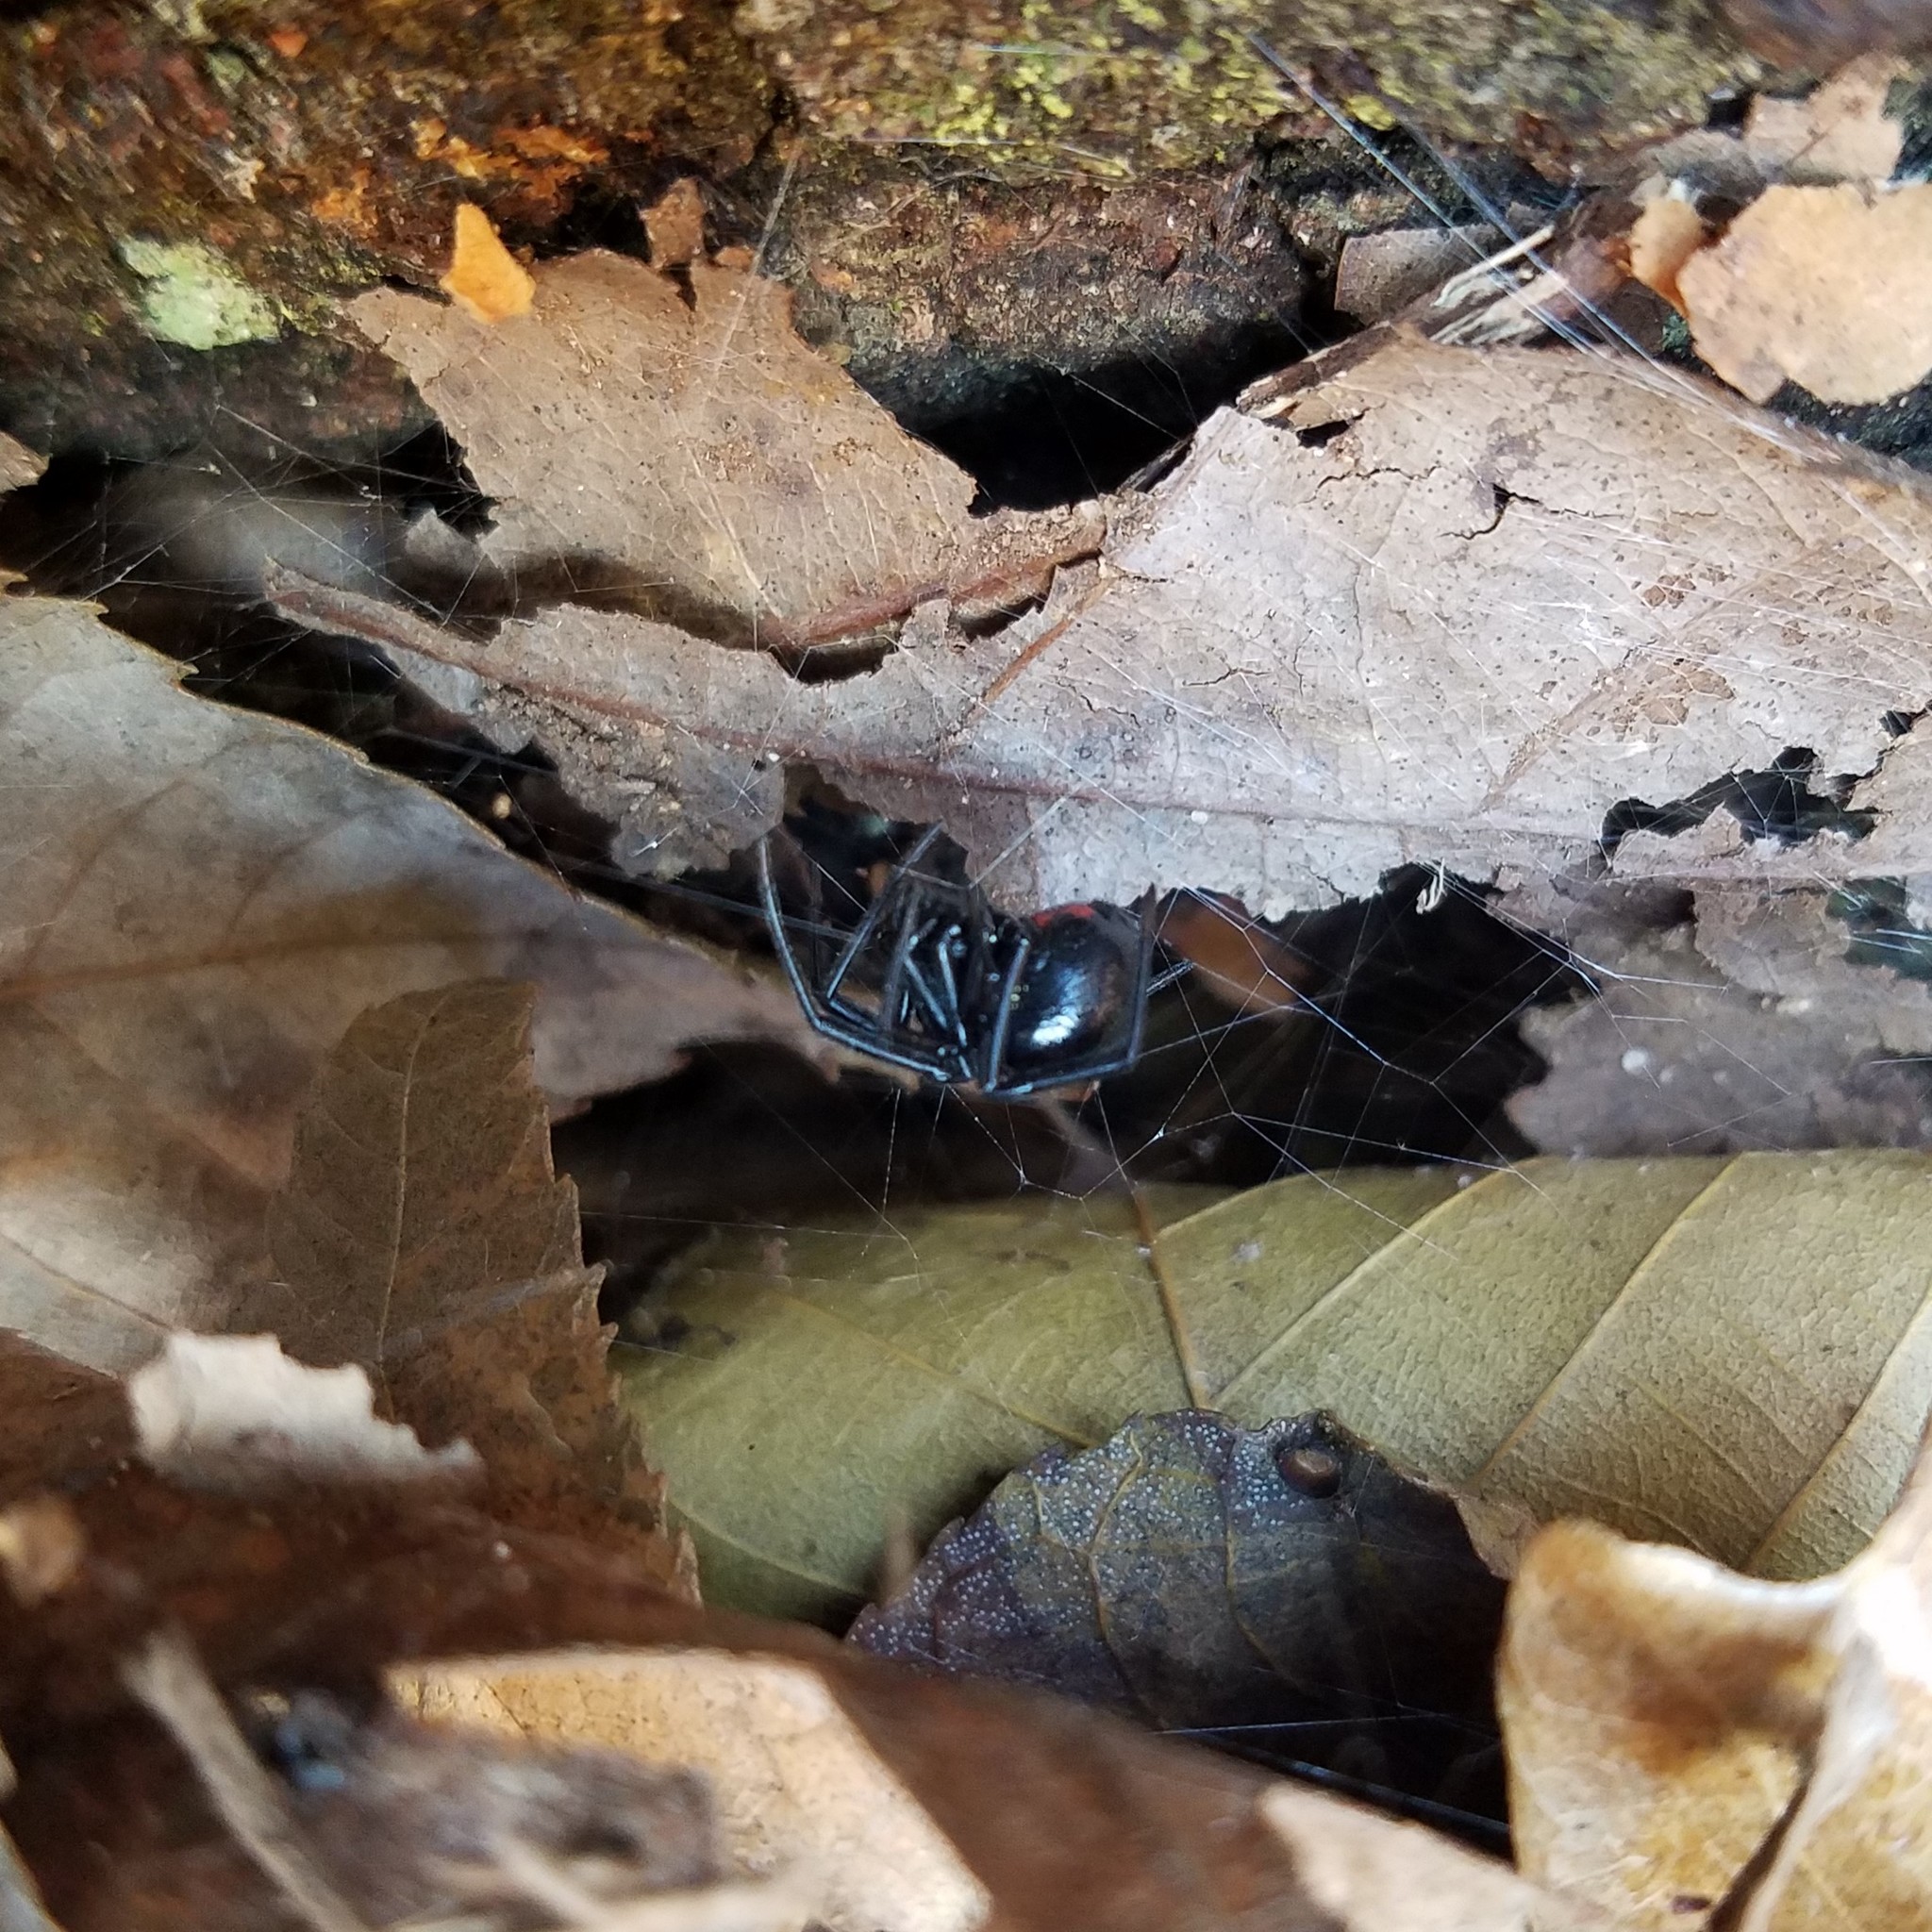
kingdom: Animalia
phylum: Arthropoda
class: Arachnida
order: Araneae
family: Theridiidae
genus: Latrodectus
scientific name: Latrodectus mactans
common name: Cobweb spiders
